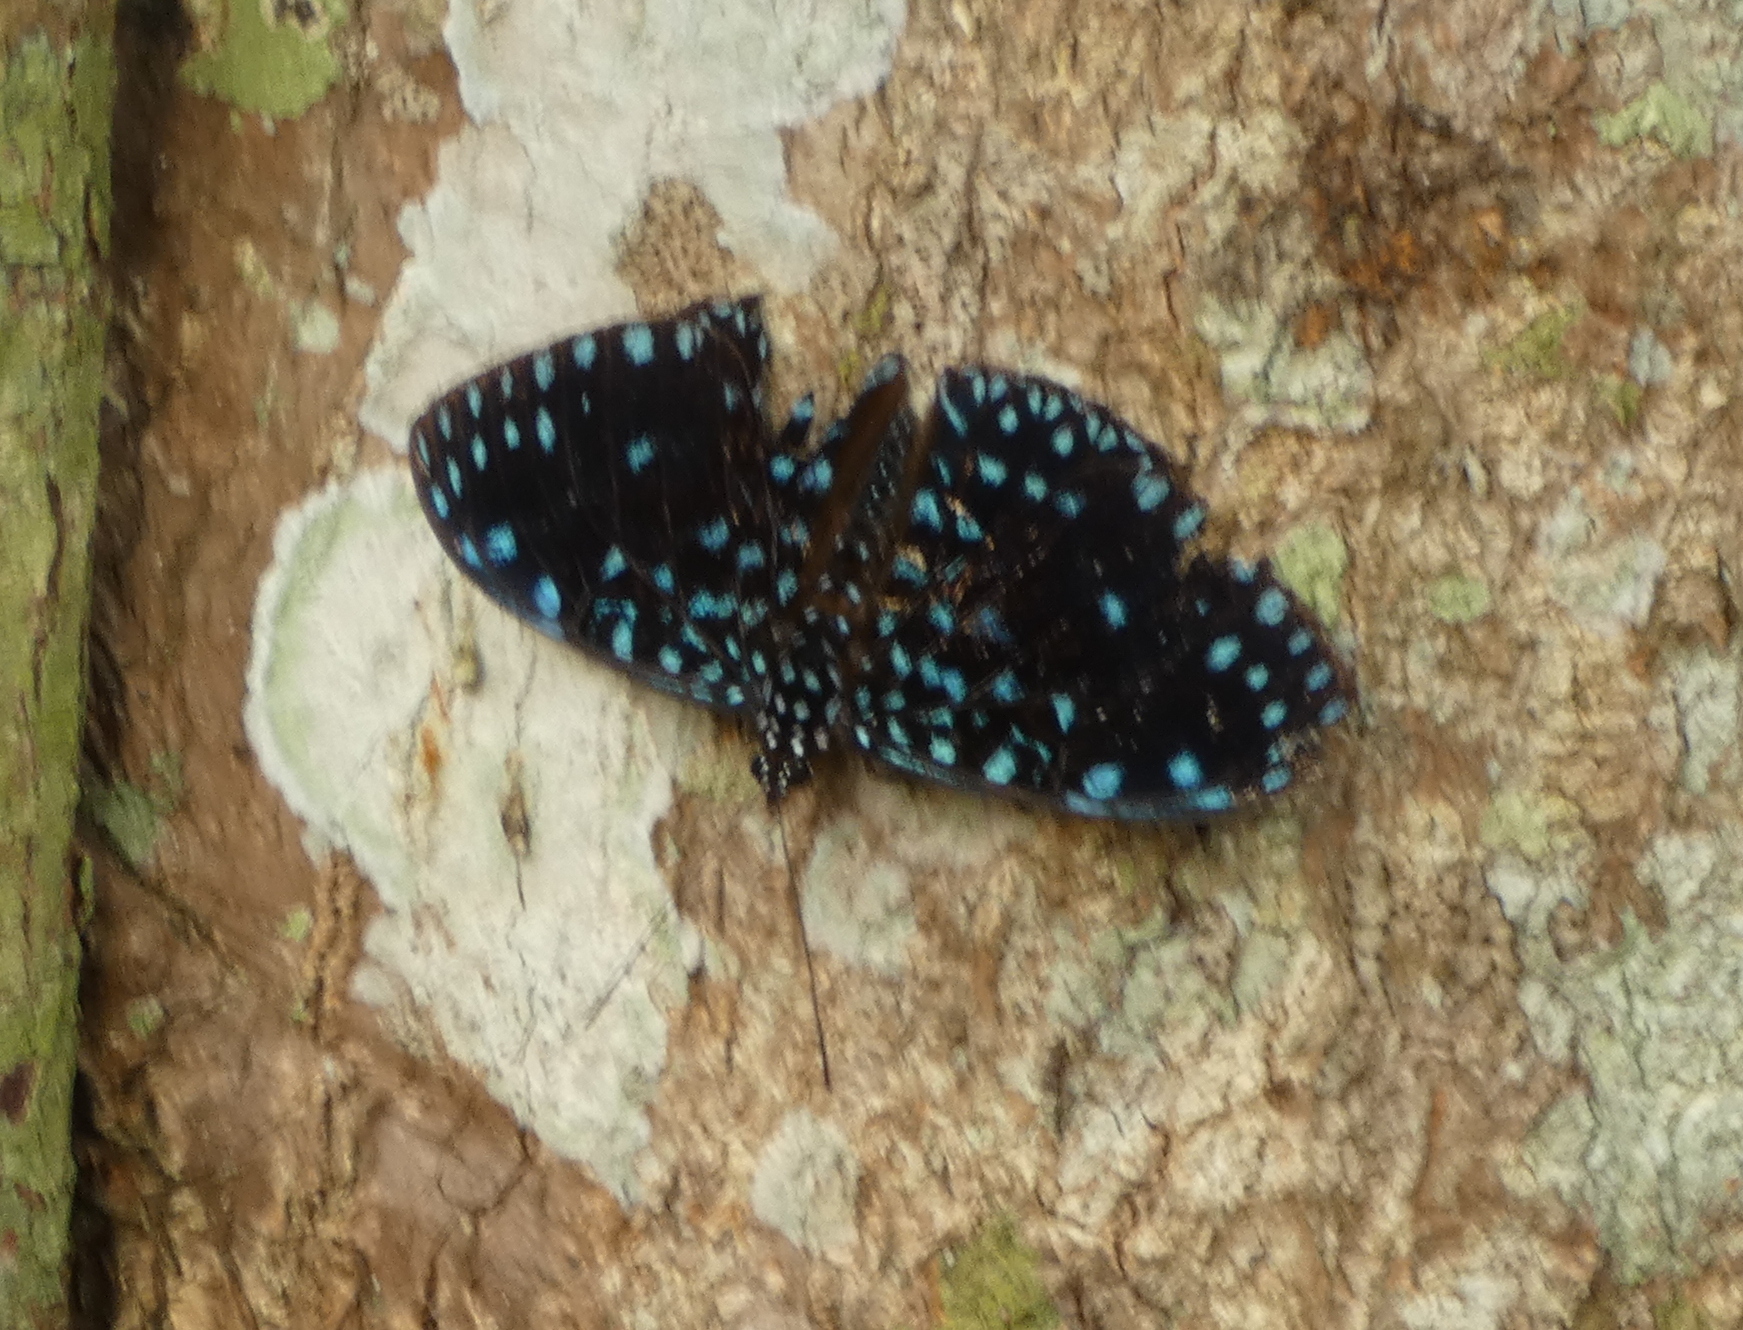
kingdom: Animalia
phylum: Arthropoda
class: Insecta
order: Lepidoptera
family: Nymphalidae
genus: Hamadryas
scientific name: Hamadryas laodamia
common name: Starry night cracker
